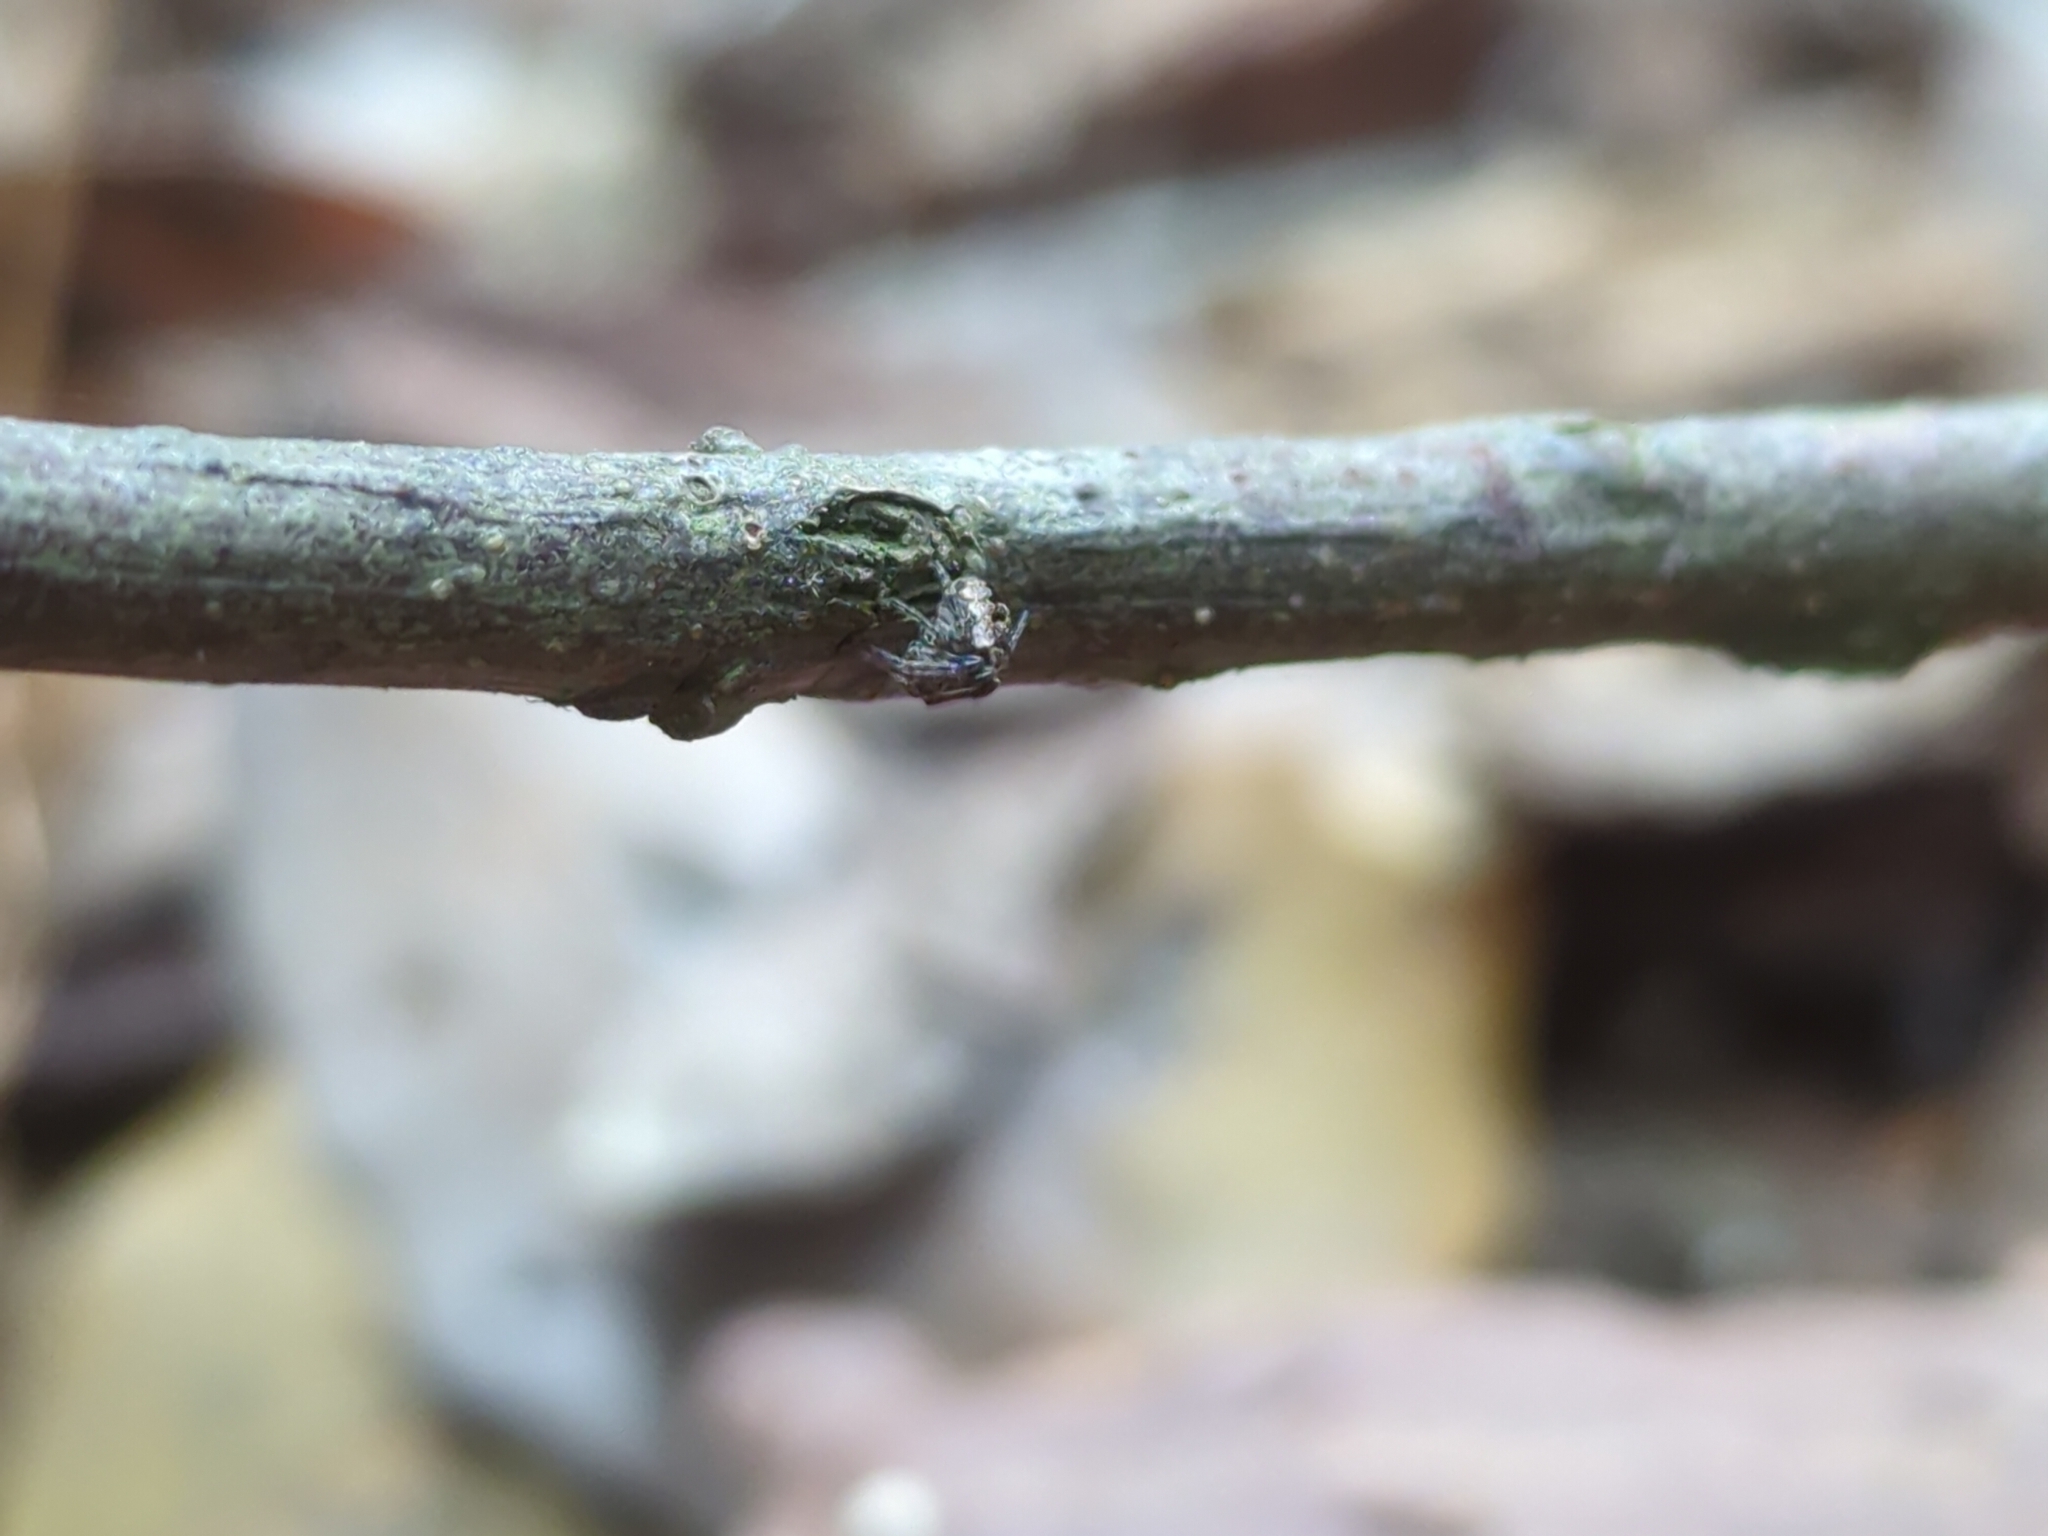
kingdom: Animalia
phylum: Arthropoda
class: Arachnida
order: Araneae
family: Araneidae
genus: Zilla
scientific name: Zilla diodia
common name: Zilla diodia
